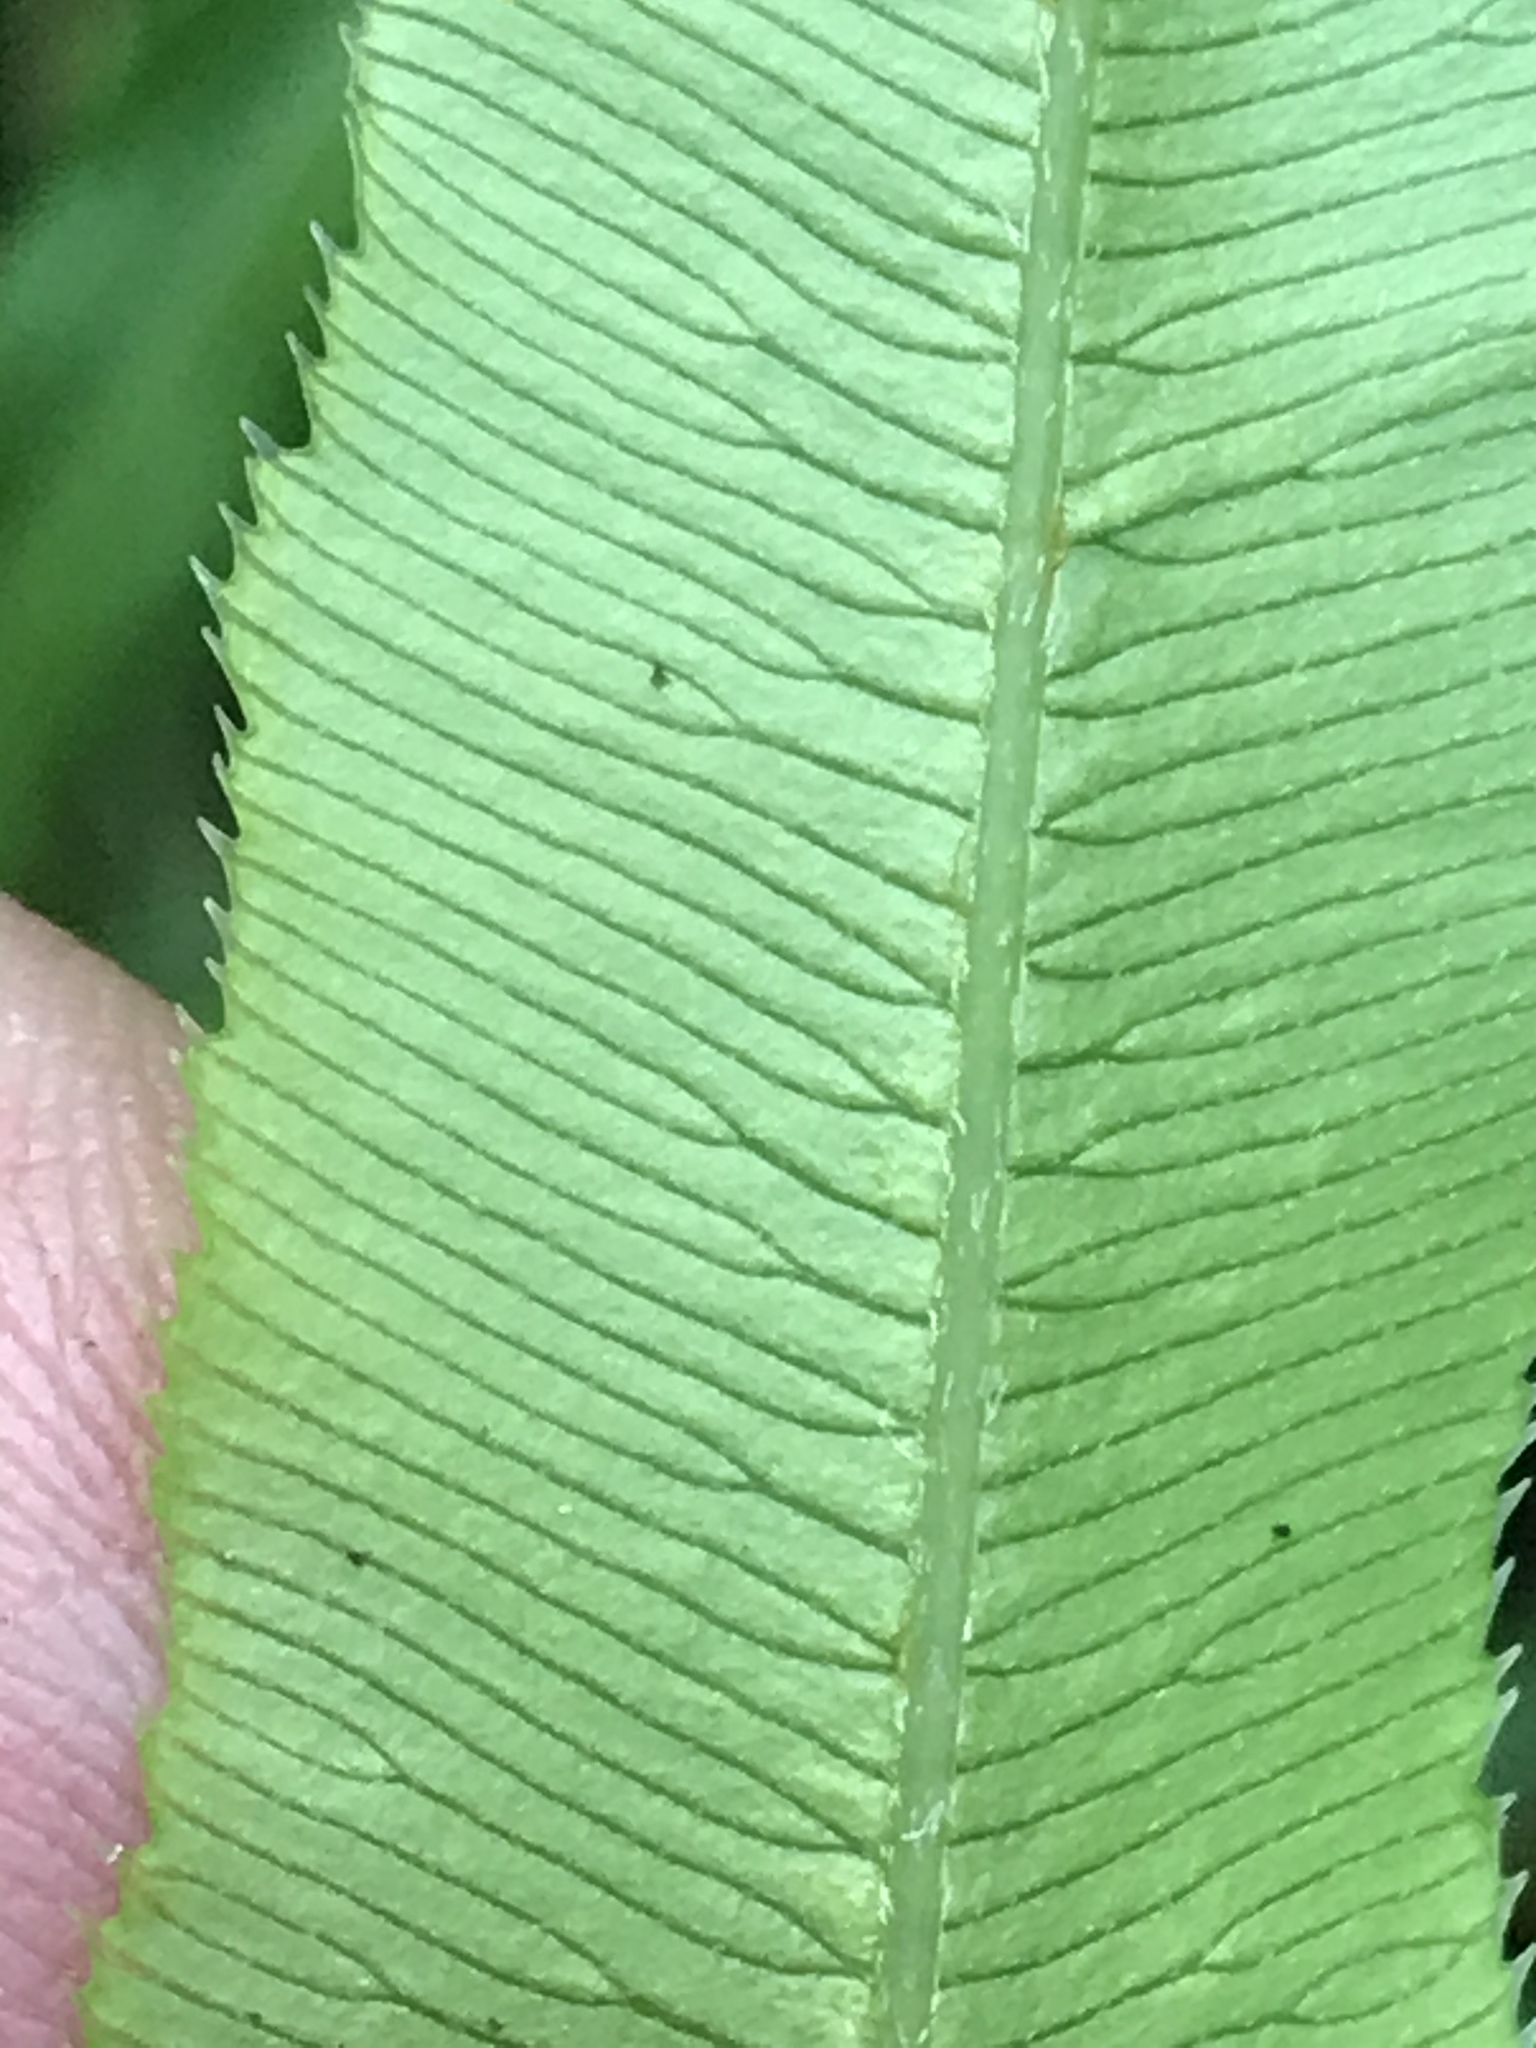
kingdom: Plantae
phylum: Tracheophyta
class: Polypodiopsida
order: Polypodiales
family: Pteridaceae
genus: Pteris
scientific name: Pteris cretica
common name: Ribbon fern
